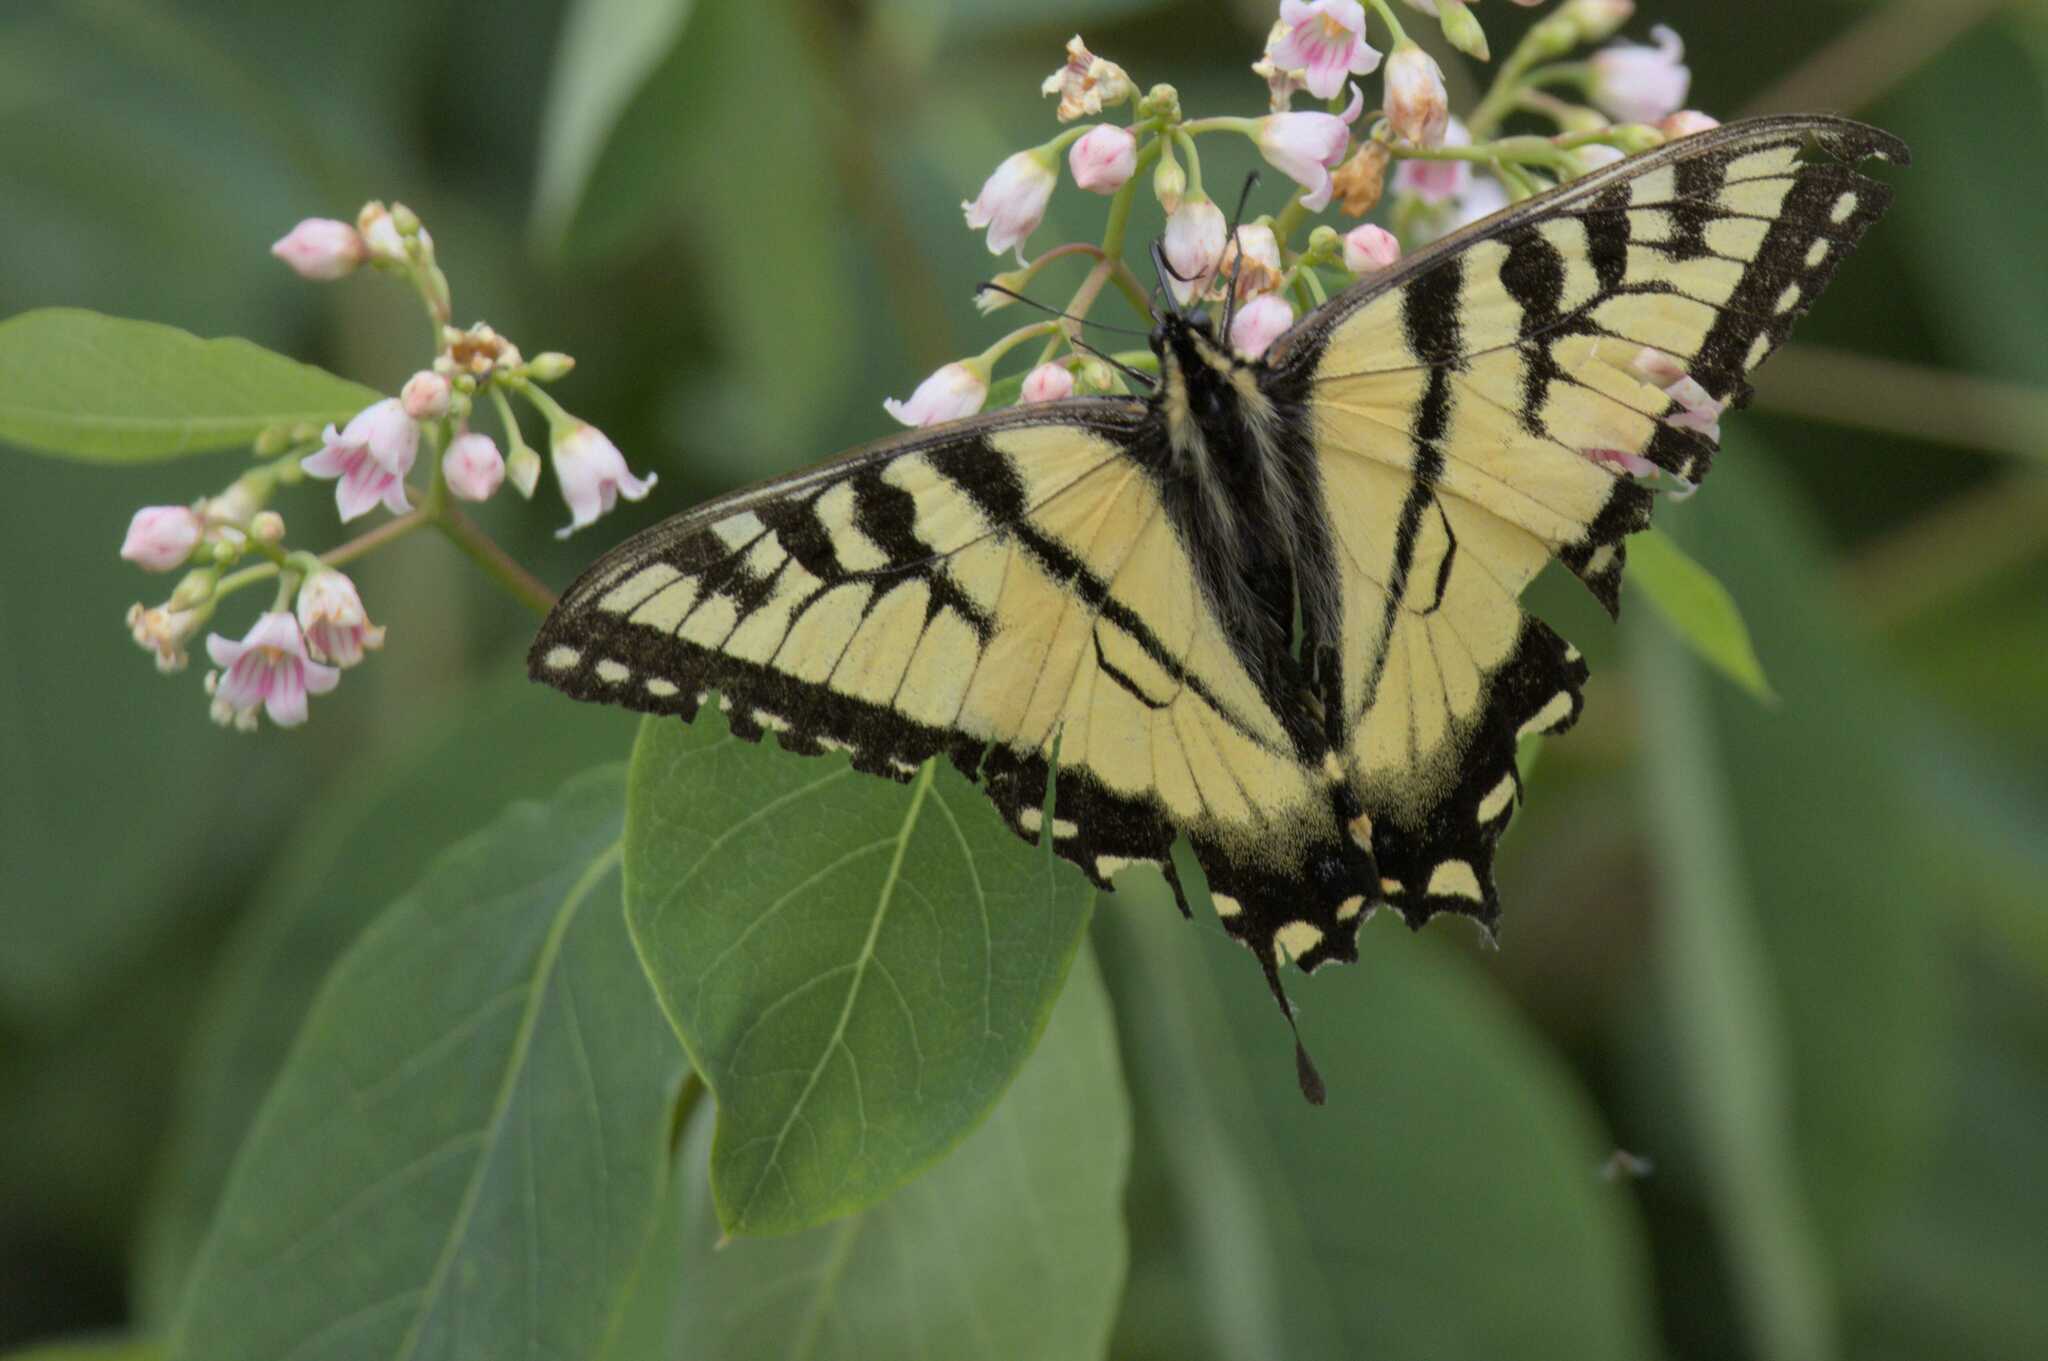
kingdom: Animalia
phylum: Arthropoda
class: Insecta
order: Lepidoptera
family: Papilionidae
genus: Papilio
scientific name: Papilio canadensis
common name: Canadian tiger swallowtail
